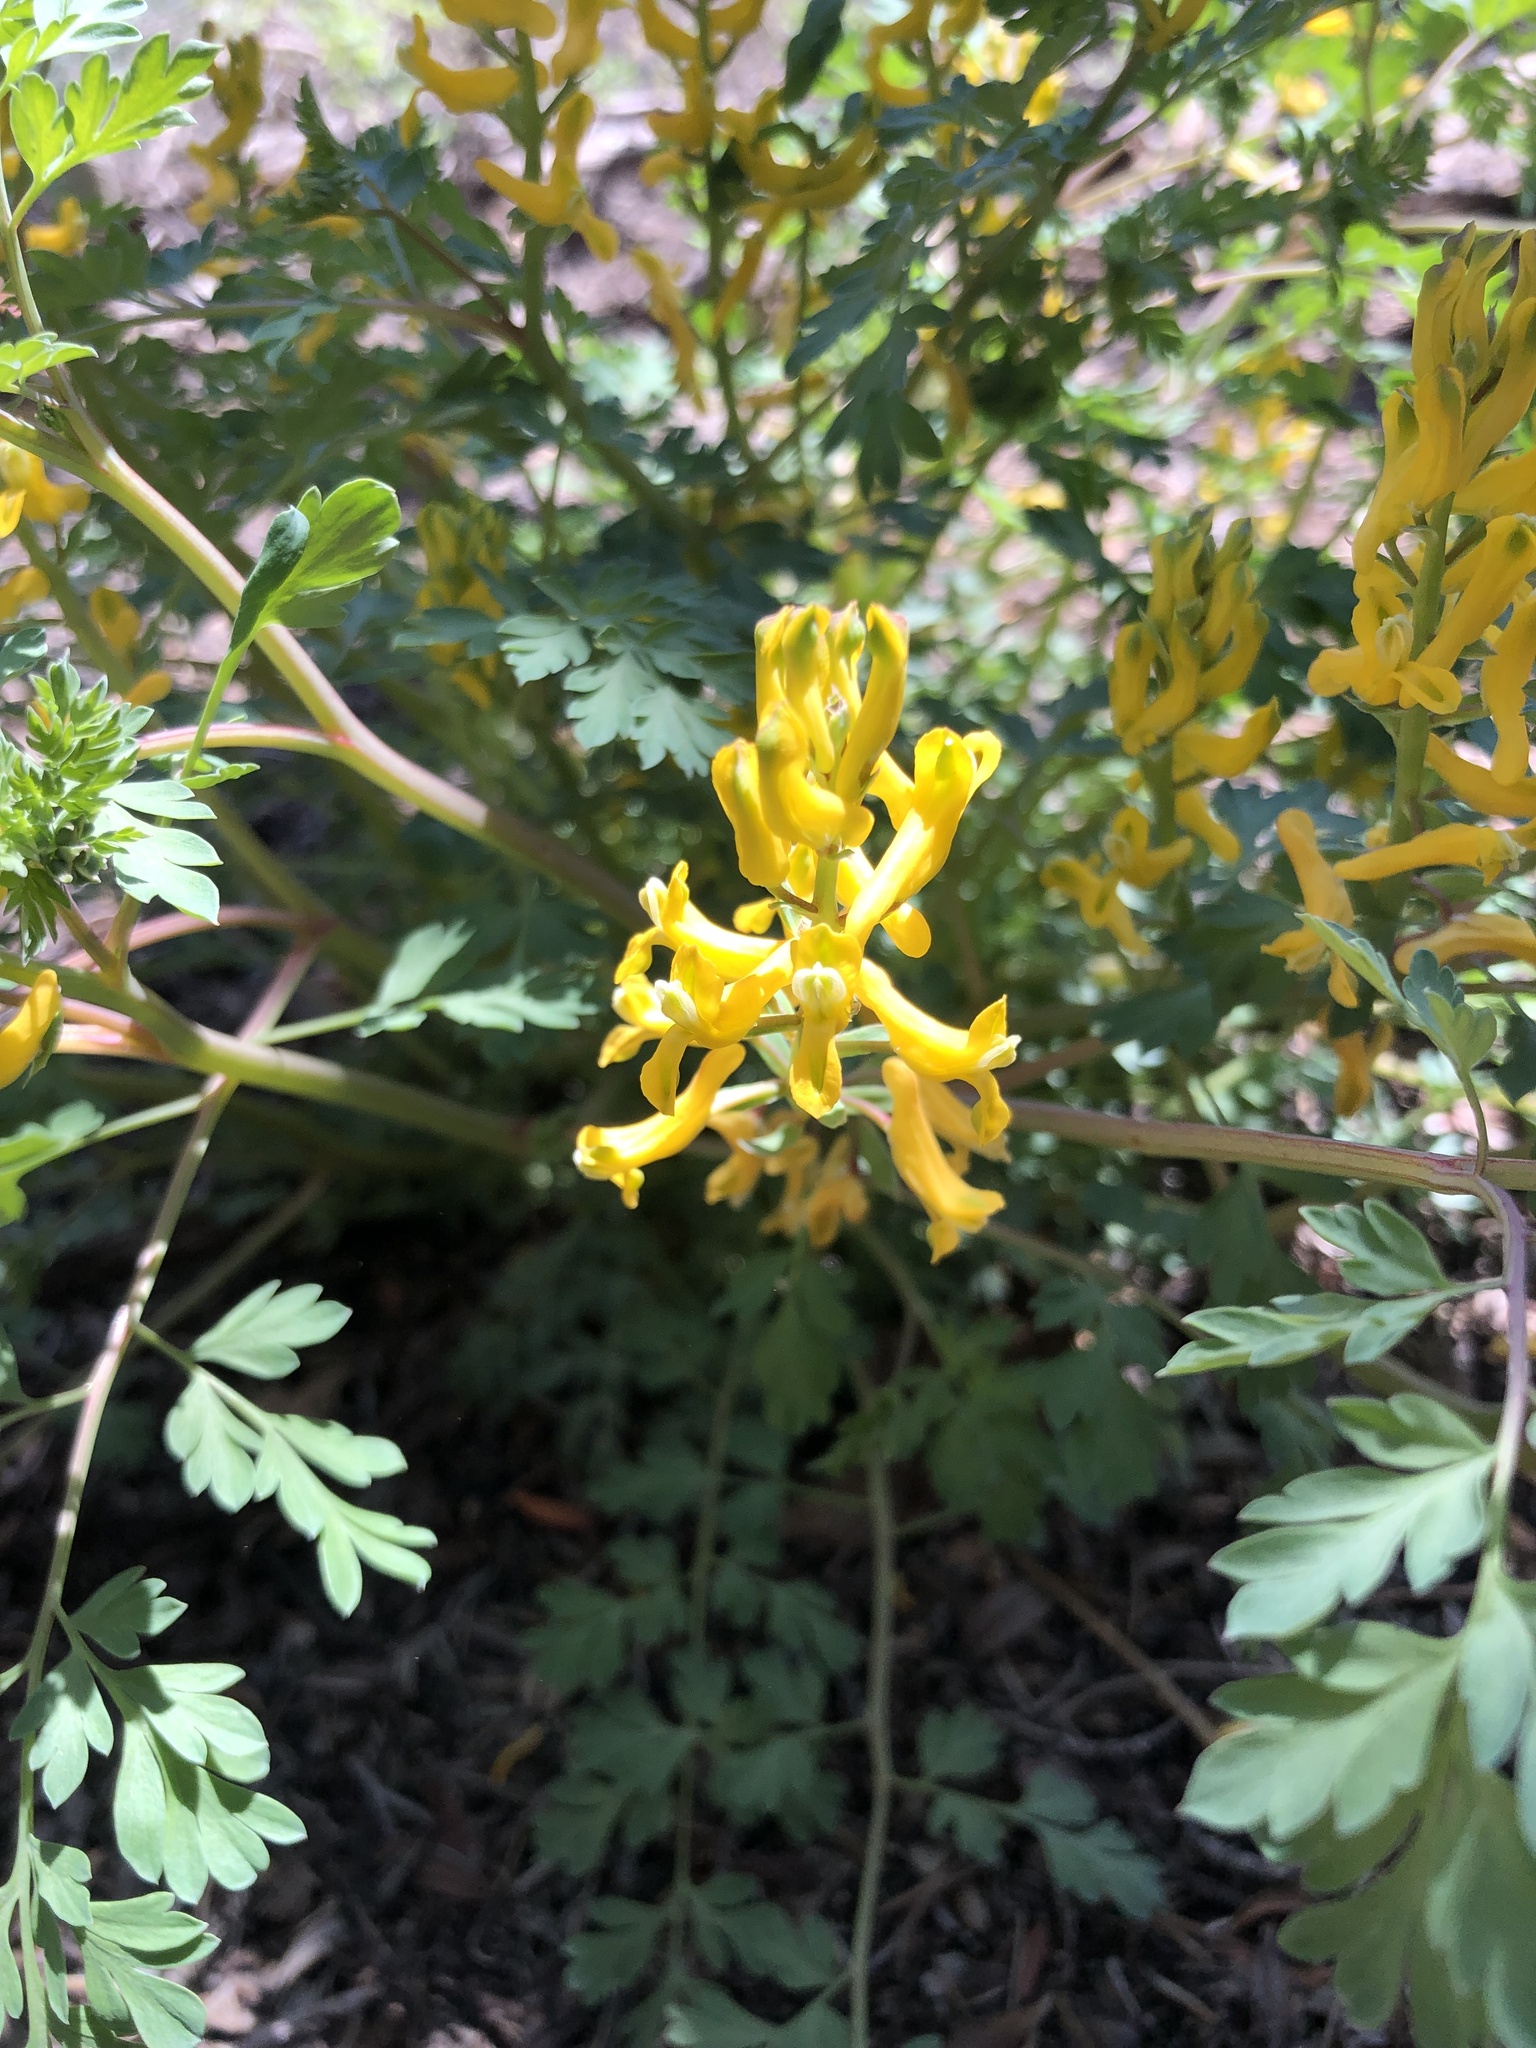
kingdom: Plantae
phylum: Tracheophyta
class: Magnoliopsida
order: Ranunculales
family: Papaveraceae
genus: Corydalis
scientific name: Corydalis aurea
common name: Golden corydalis
